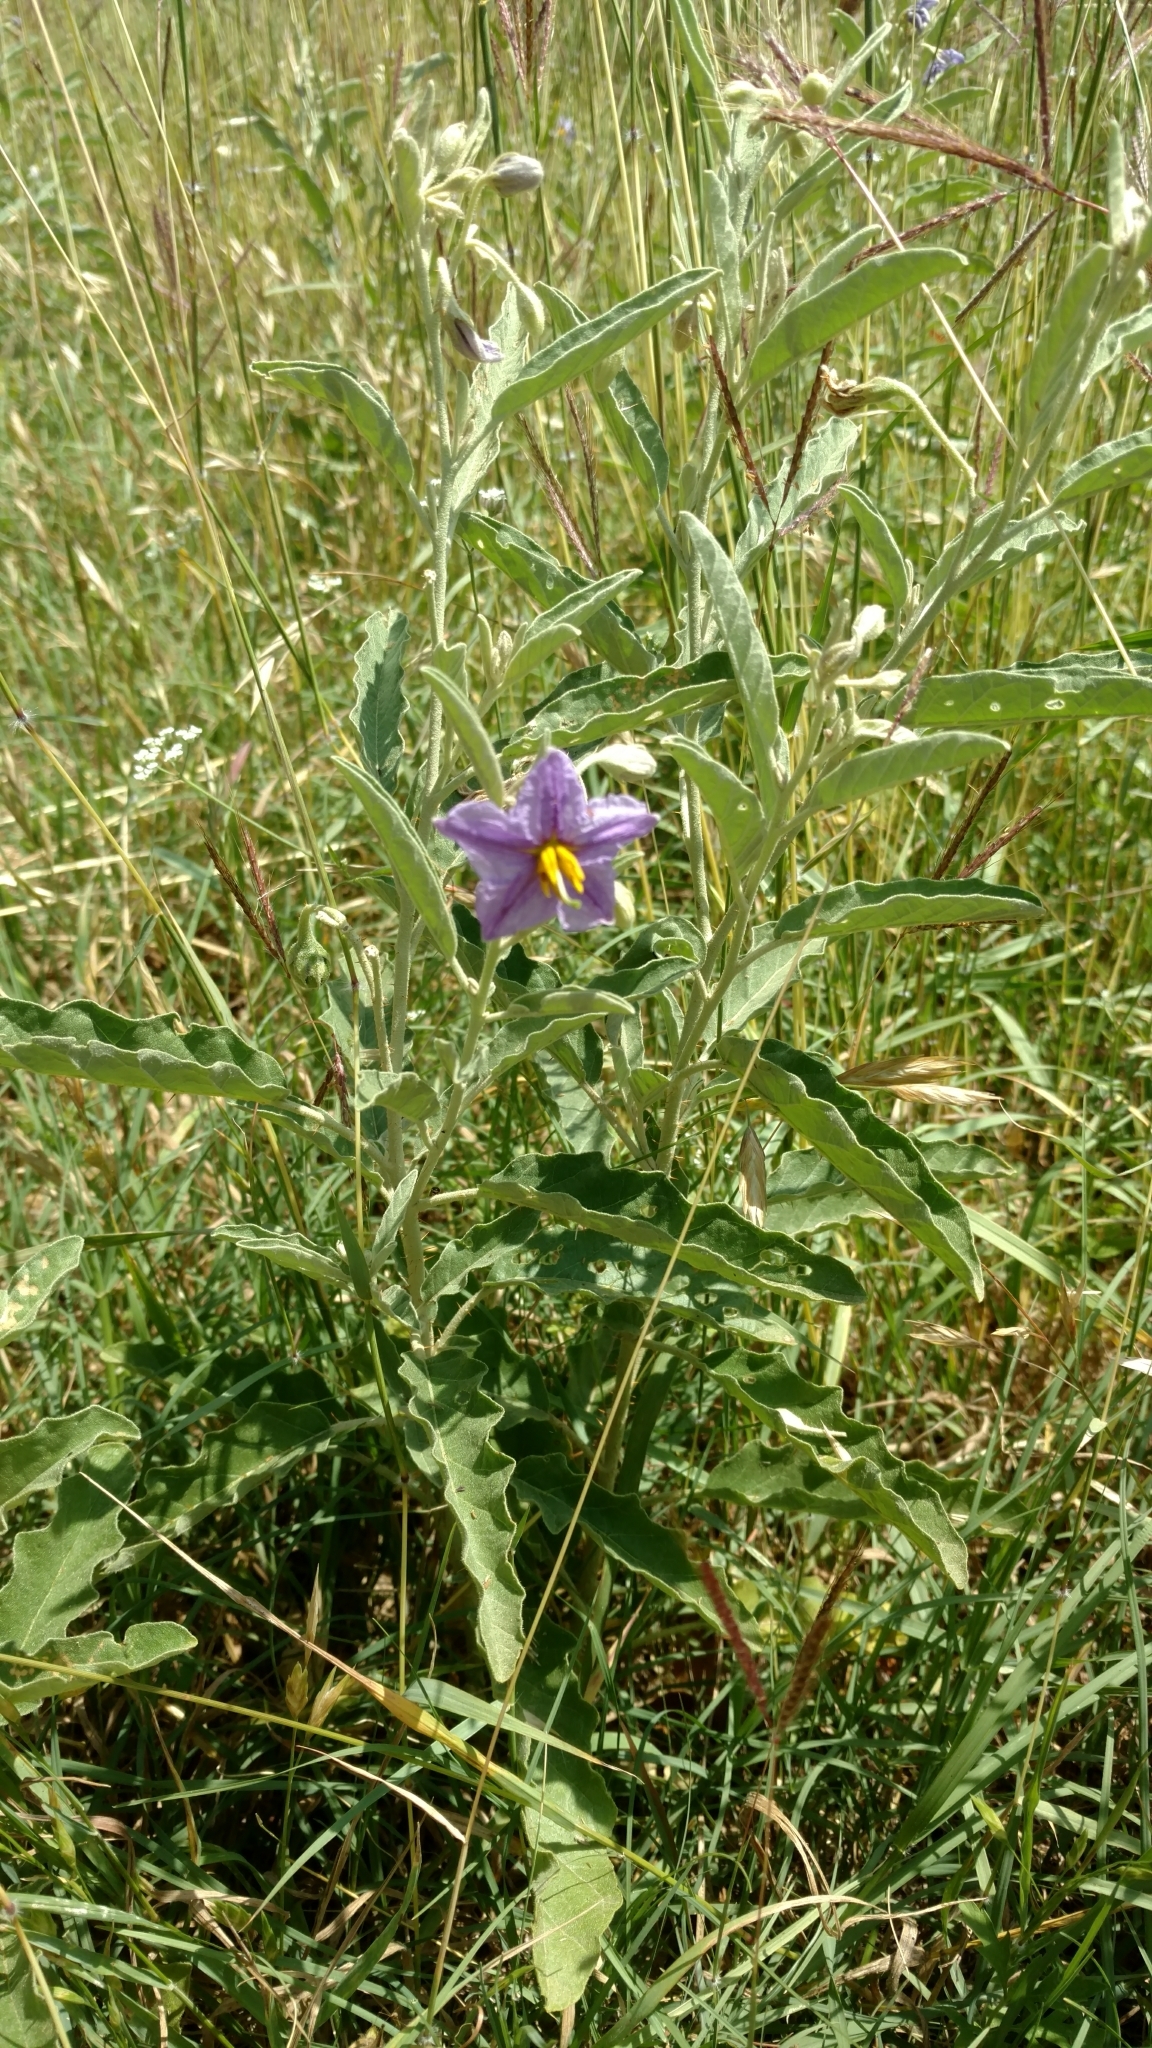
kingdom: Plantae
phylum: Tracheophyta
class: Magnoliopsida
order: Solanales
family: Solanaceae
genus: Solanum
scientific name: Solanum elaeagnifolium
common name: Silverleaf nightshade
